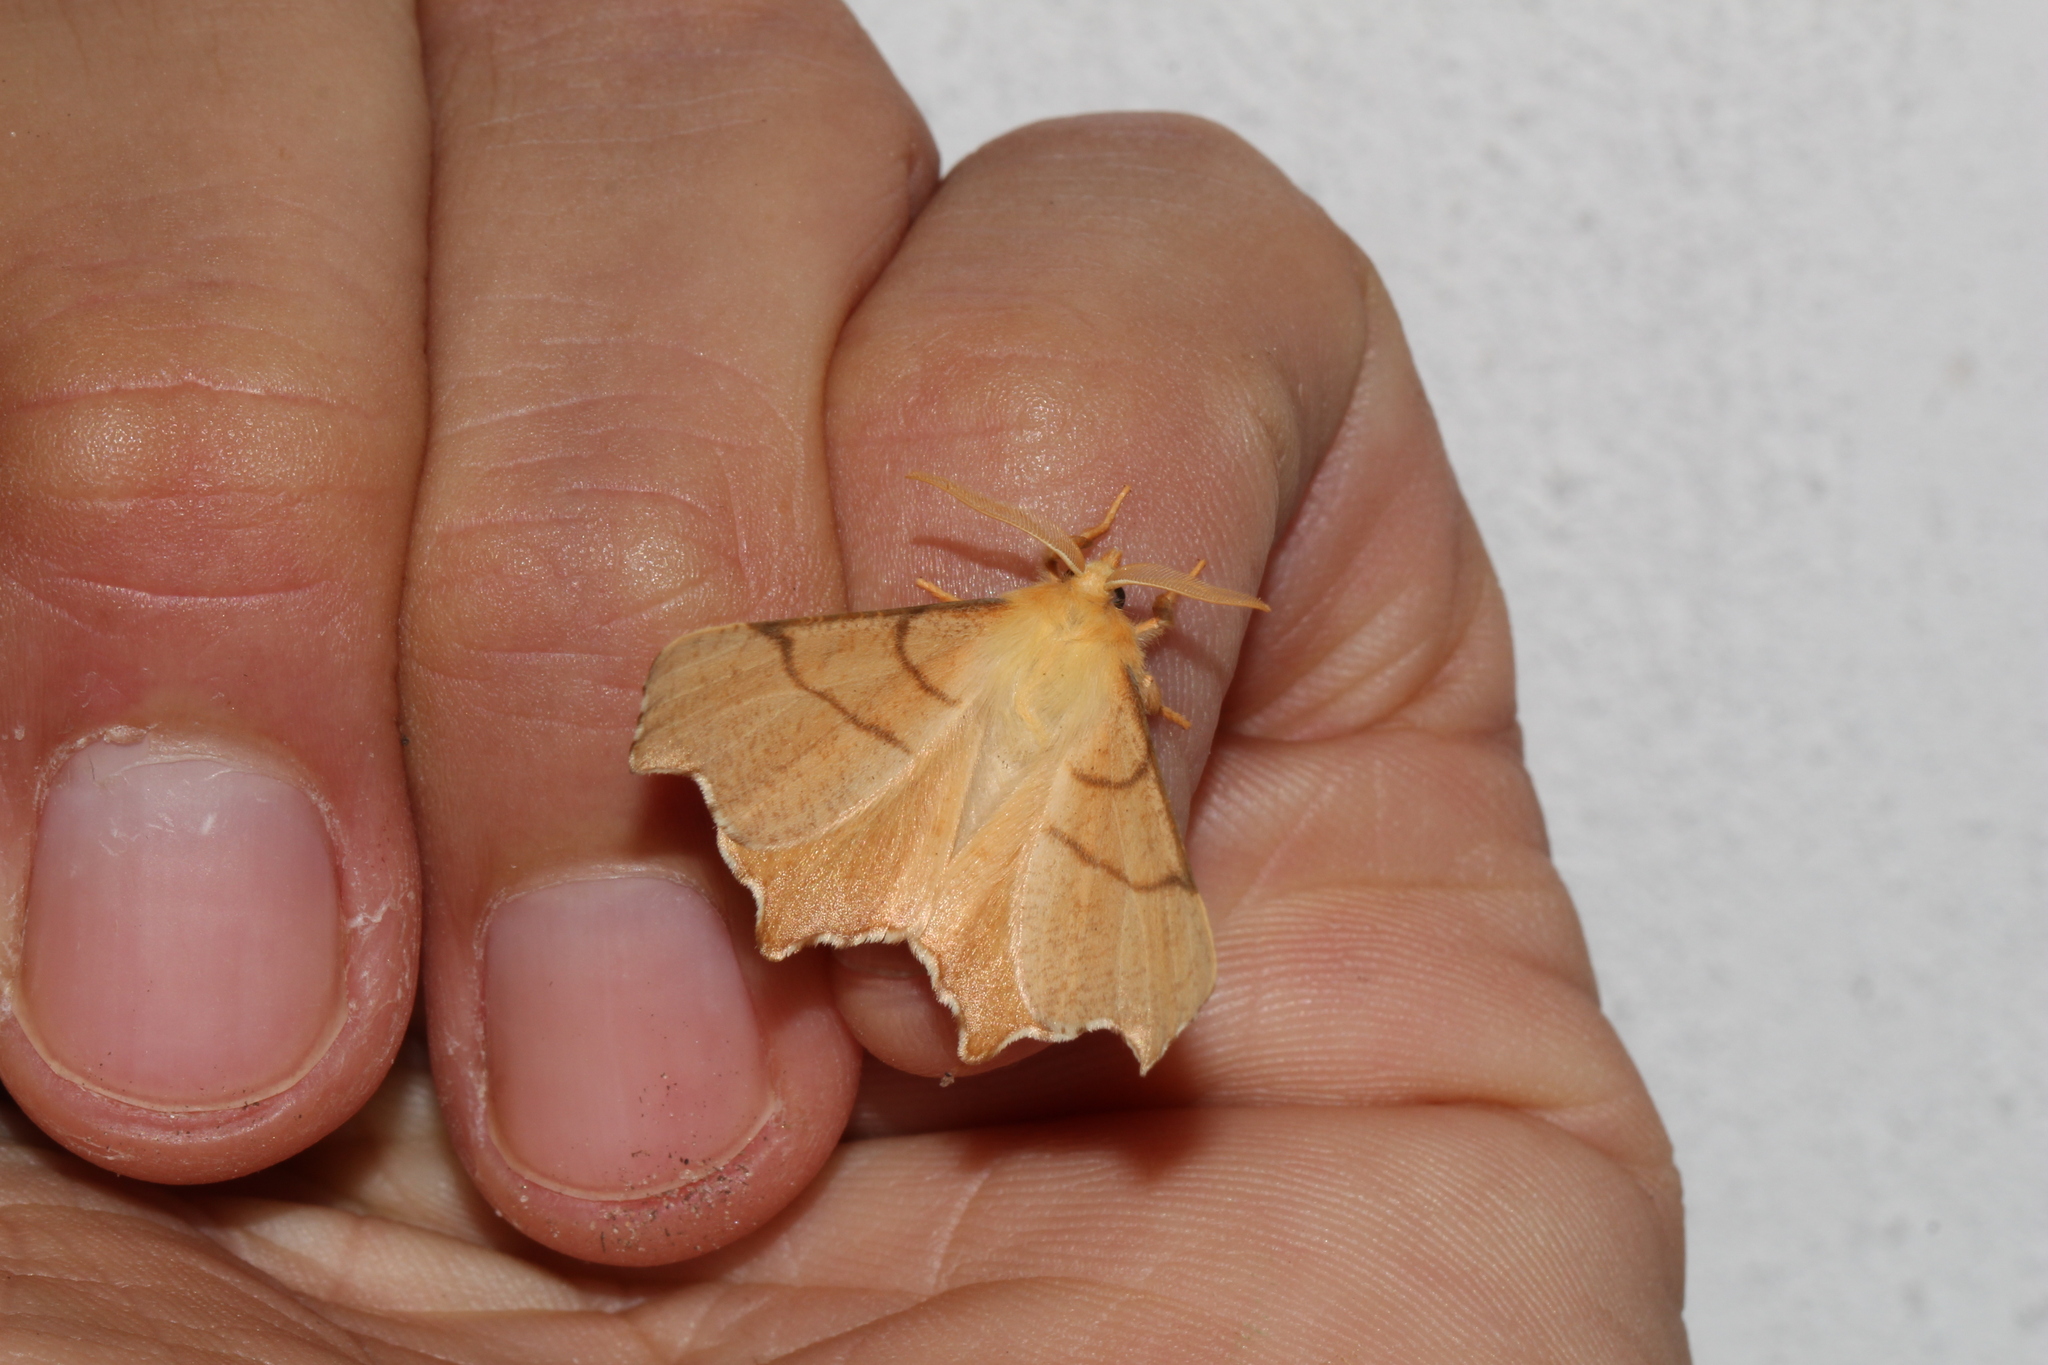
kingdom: Animalia
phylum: Arthropoda
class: Insecta
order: Lepidoptera
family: Geometridae
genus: Ennomos
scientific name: Ennomos erosaria
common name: September thorn
